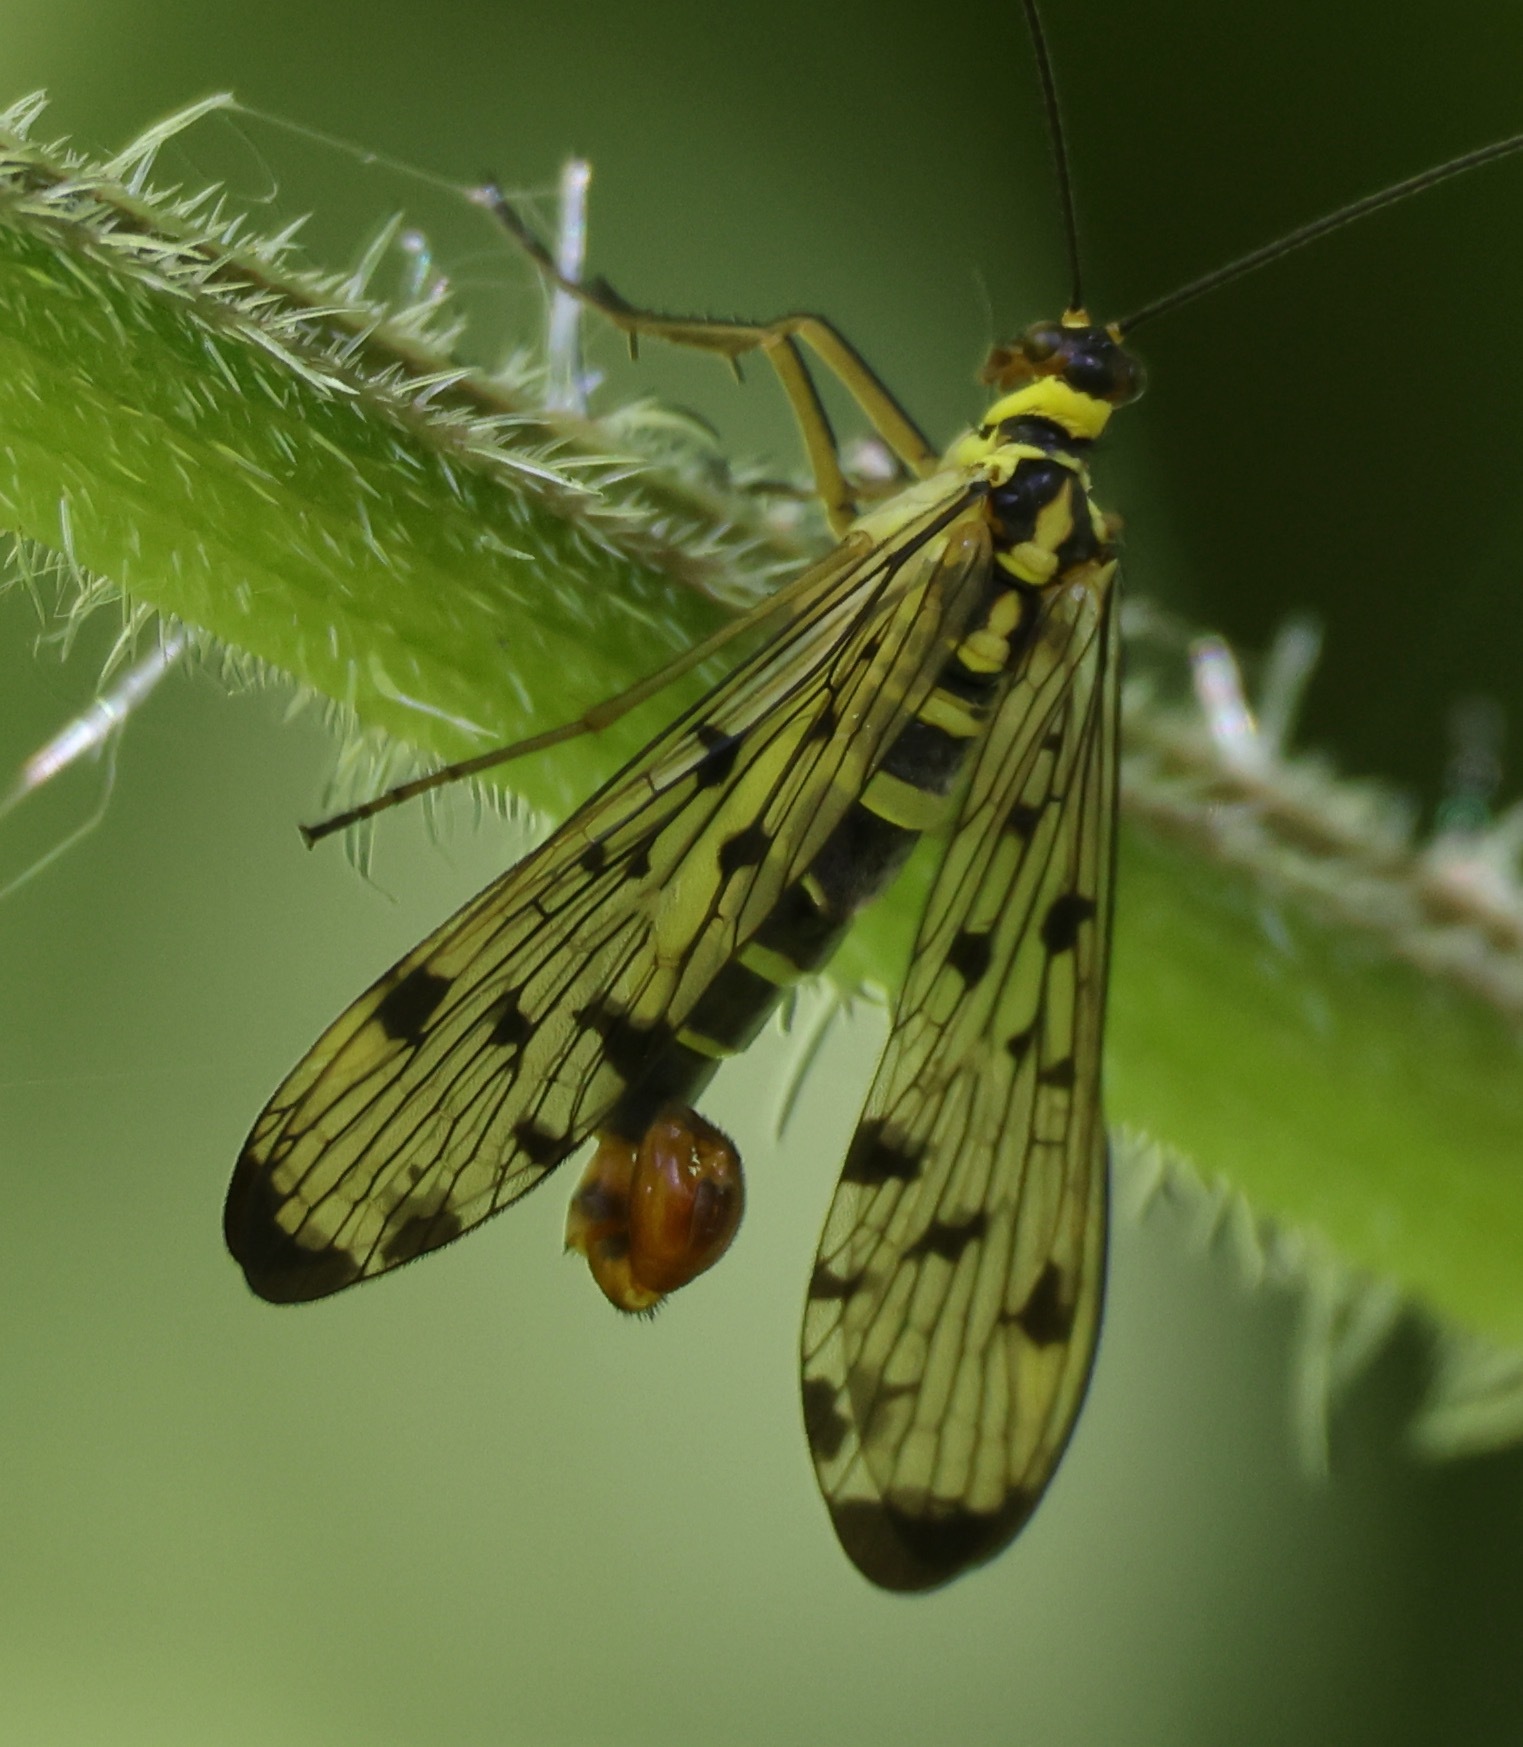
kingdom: Animalia
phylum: Arthropoda
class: Insecta
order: Mecoptera
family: Panorpidae
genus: Panorpa
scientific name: Panorpa germanica
